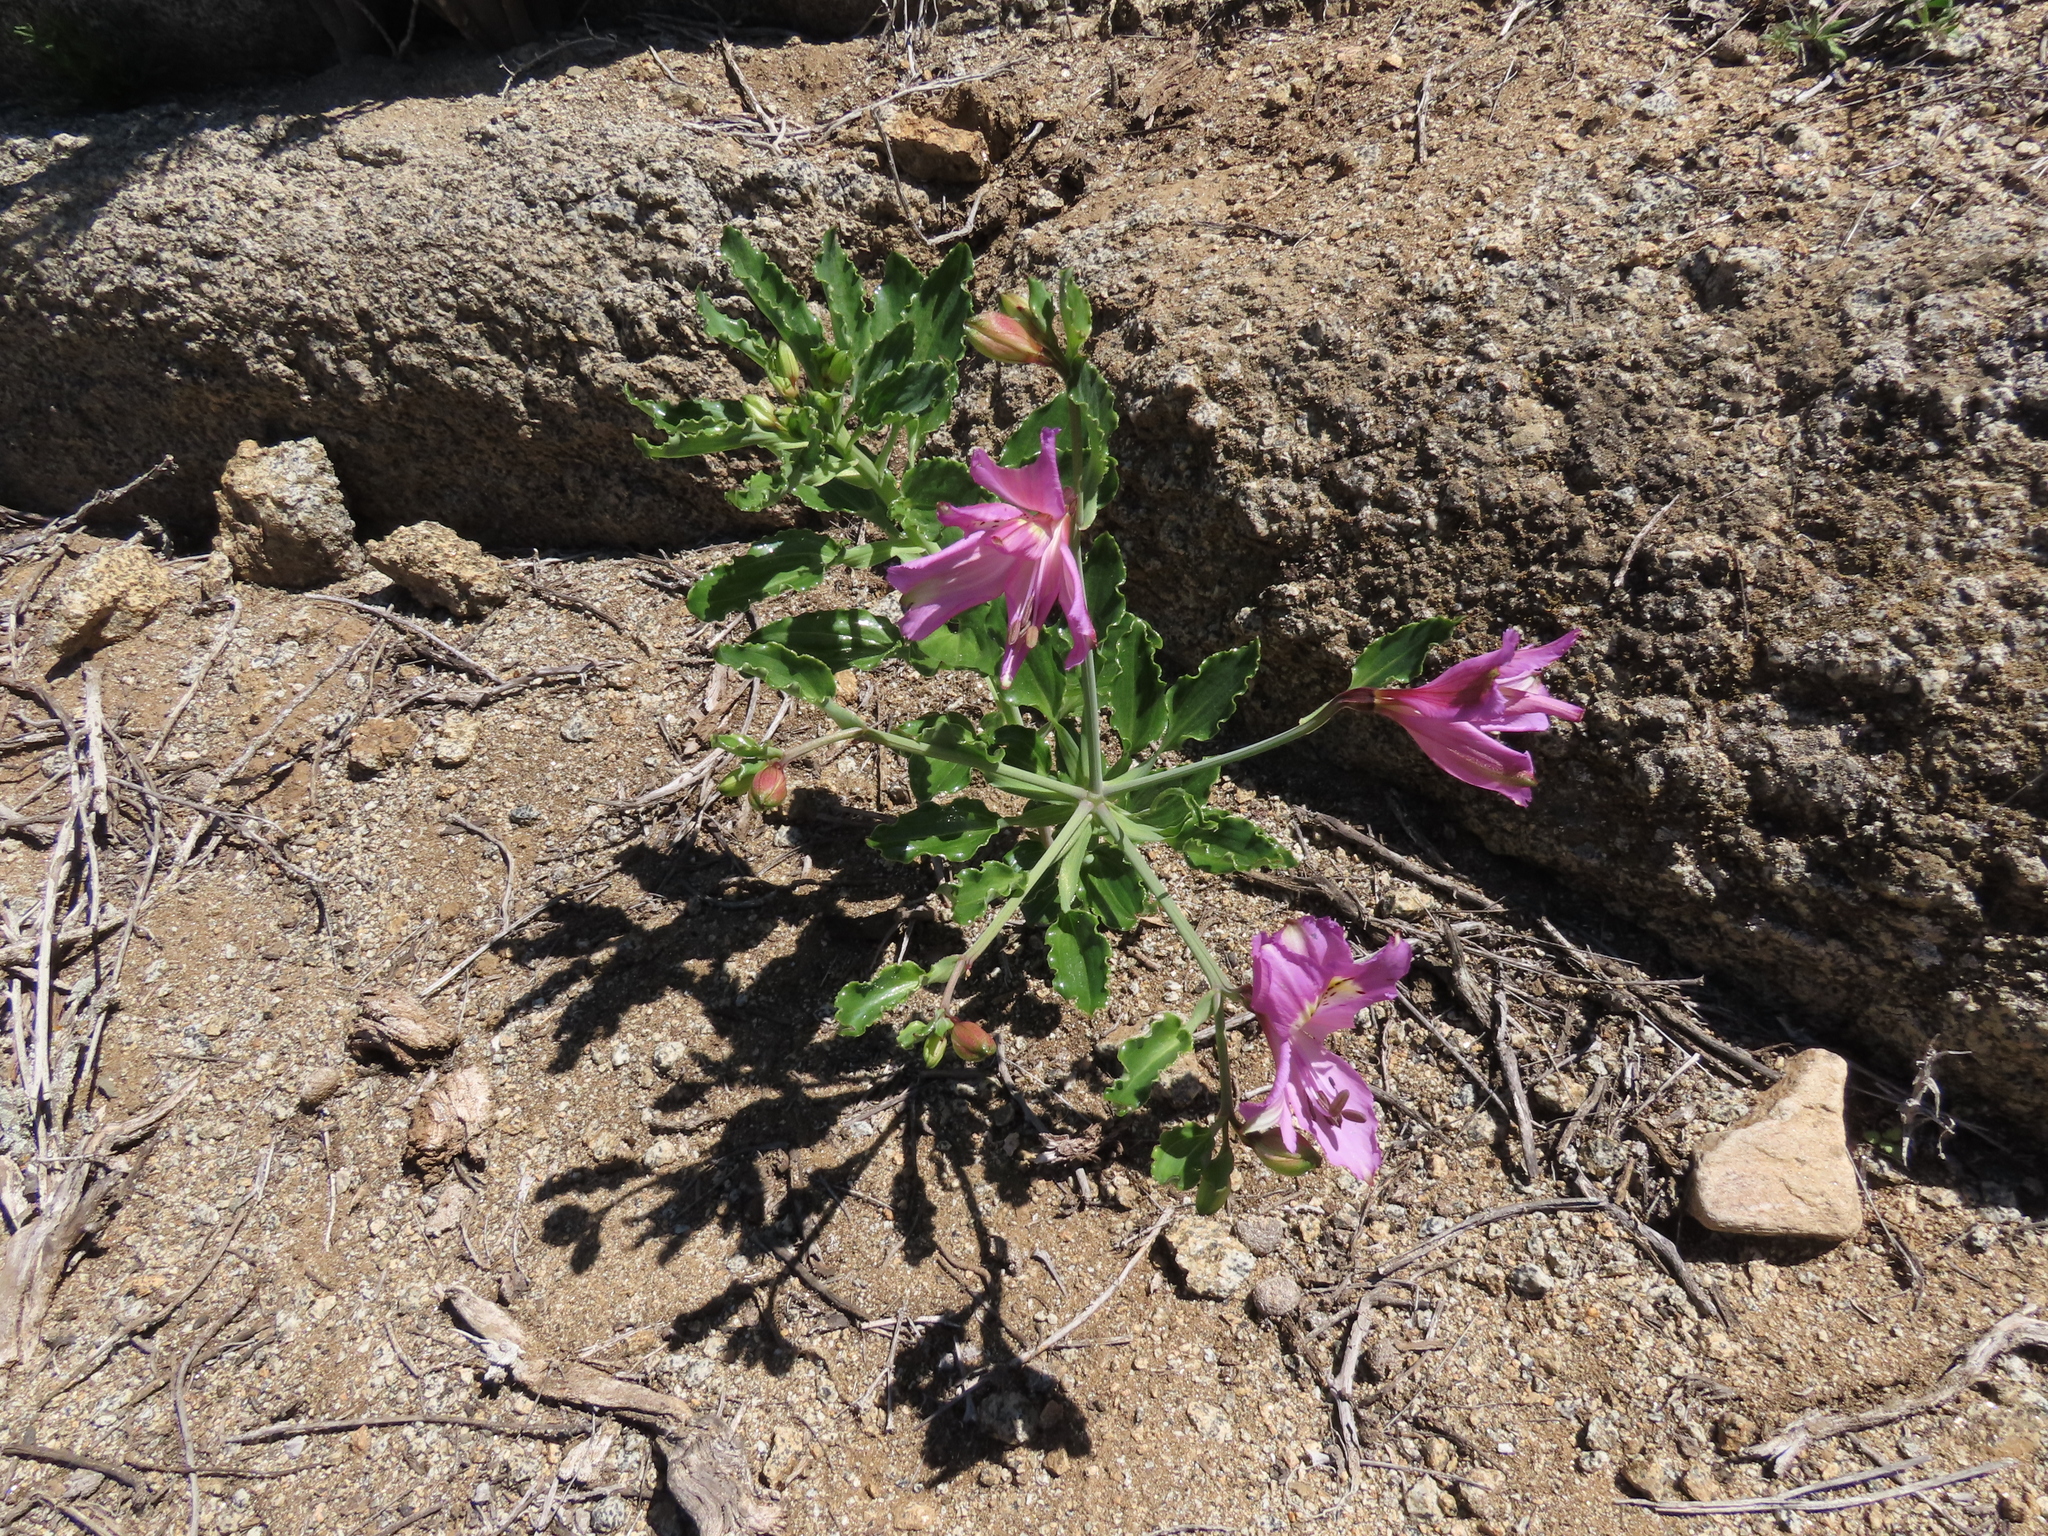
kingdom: Plantae
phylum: Tracheophyta
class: Liliopsida
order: Liliales
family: Alstroemeriaceae
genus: Alstroemeria
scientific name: Alstroemeria violacea
